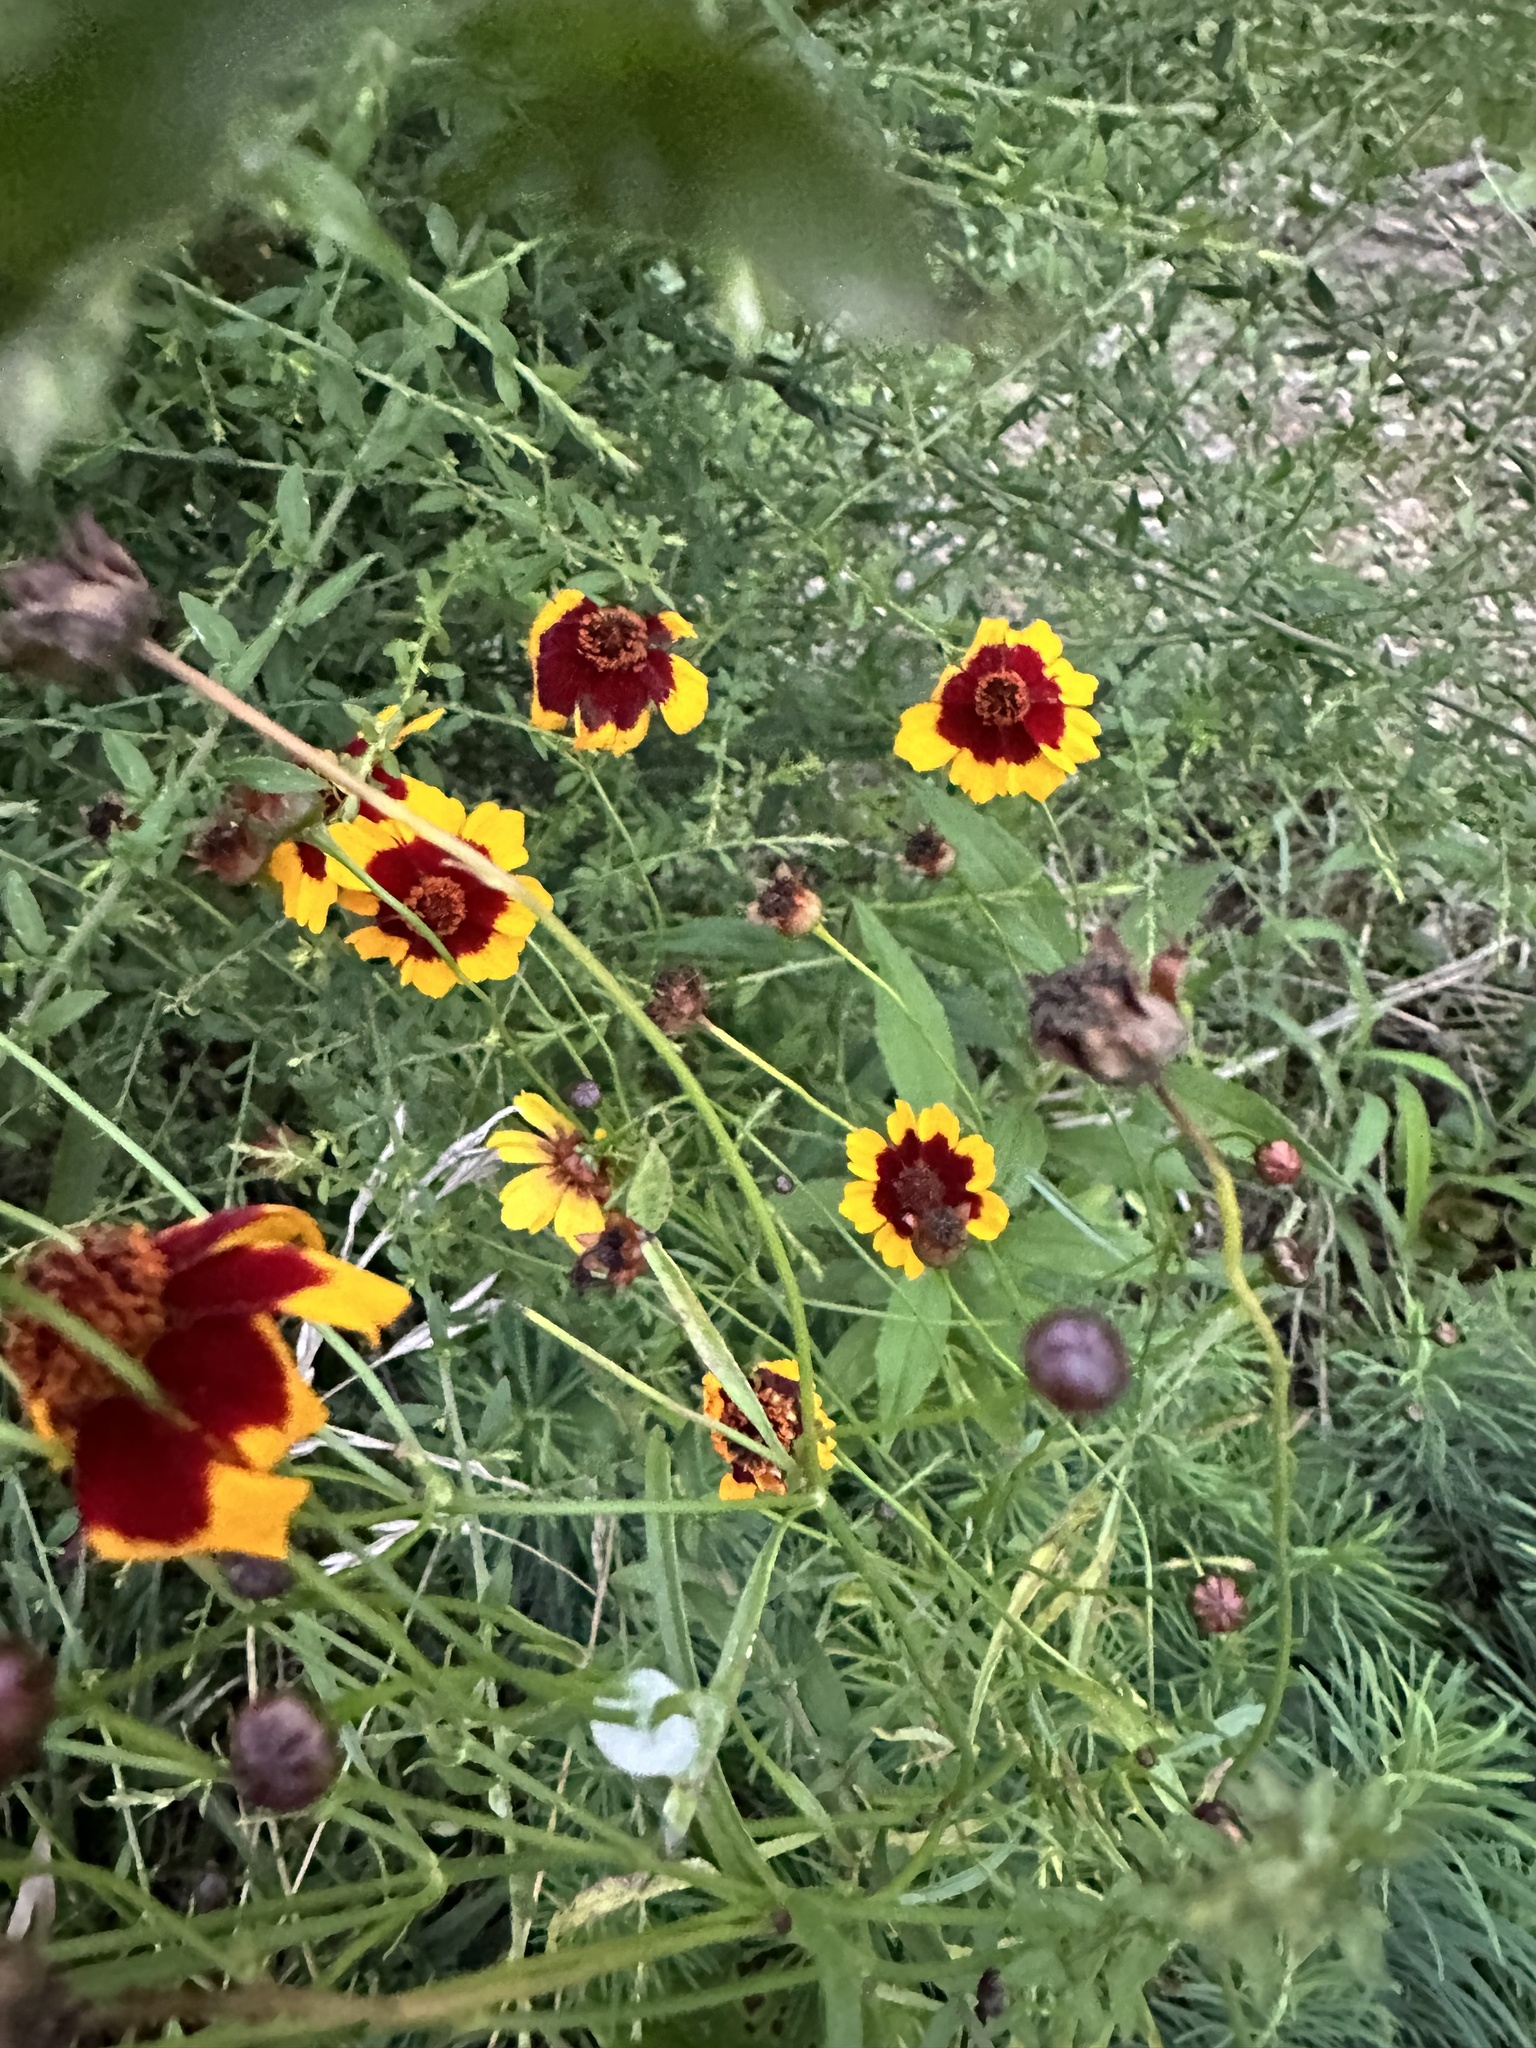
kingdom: Plantae
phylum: Tracheophyta
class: Magnoliopsida
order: Asterales
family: Asteraceae
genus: Coreopsis
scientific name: Coreopsis tinctoria
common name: Garden tickseed
